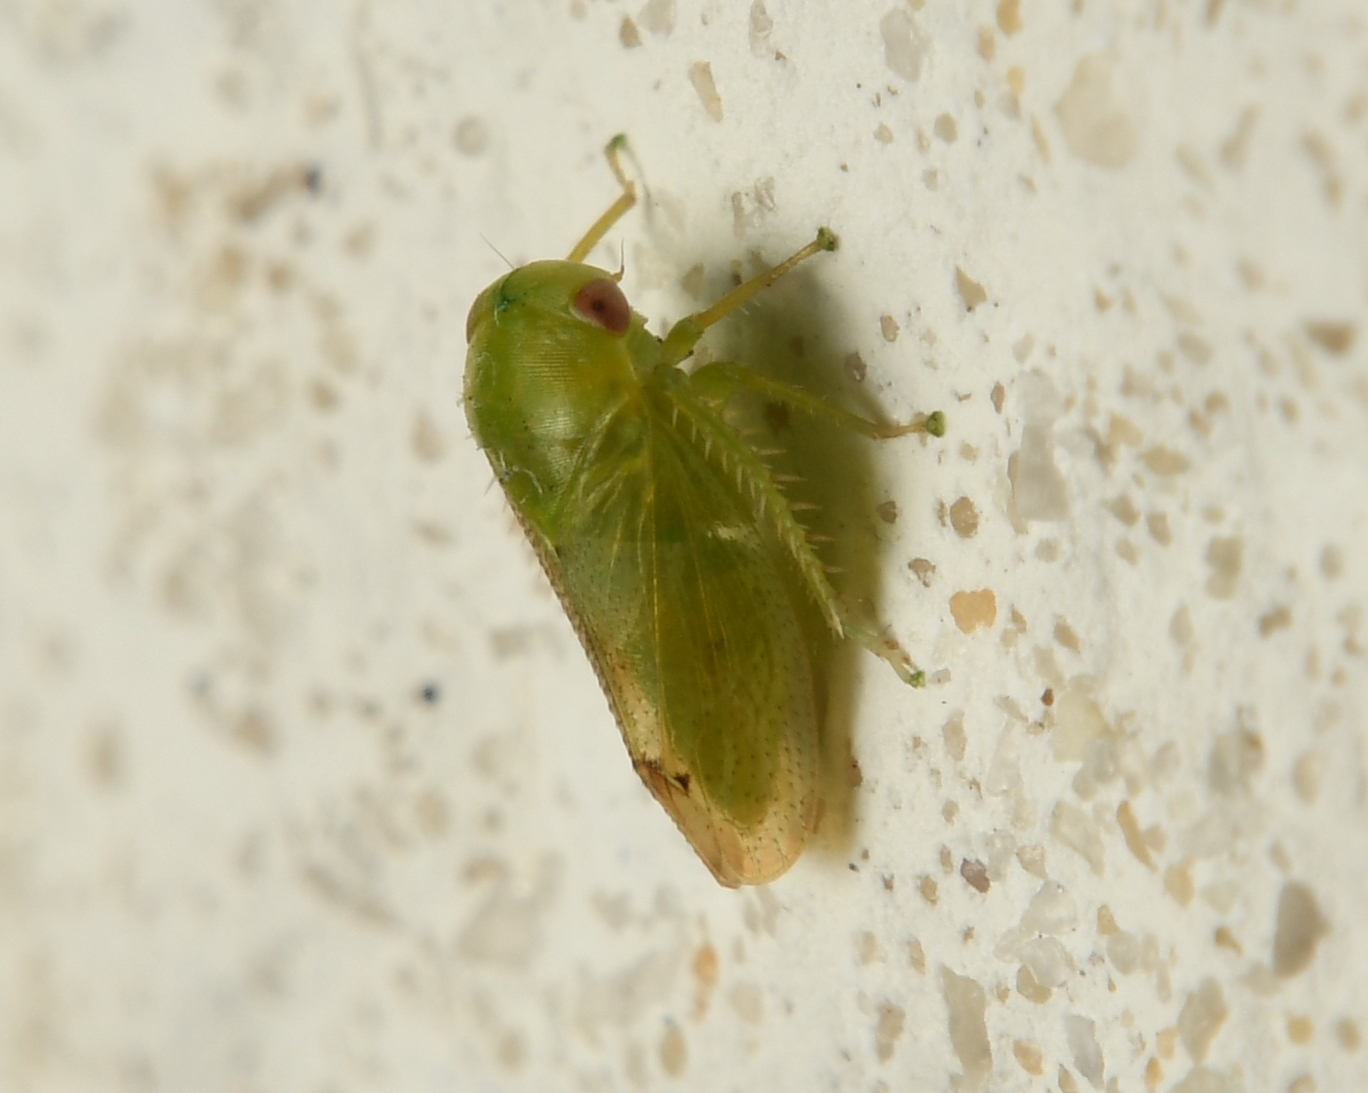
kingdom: Animalia
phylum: Arthropoda
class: Insecta
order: Hemiptera
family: Cicadellidae
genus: Penestragania
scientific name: Penestragania robusta
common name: Robust leafhopper
